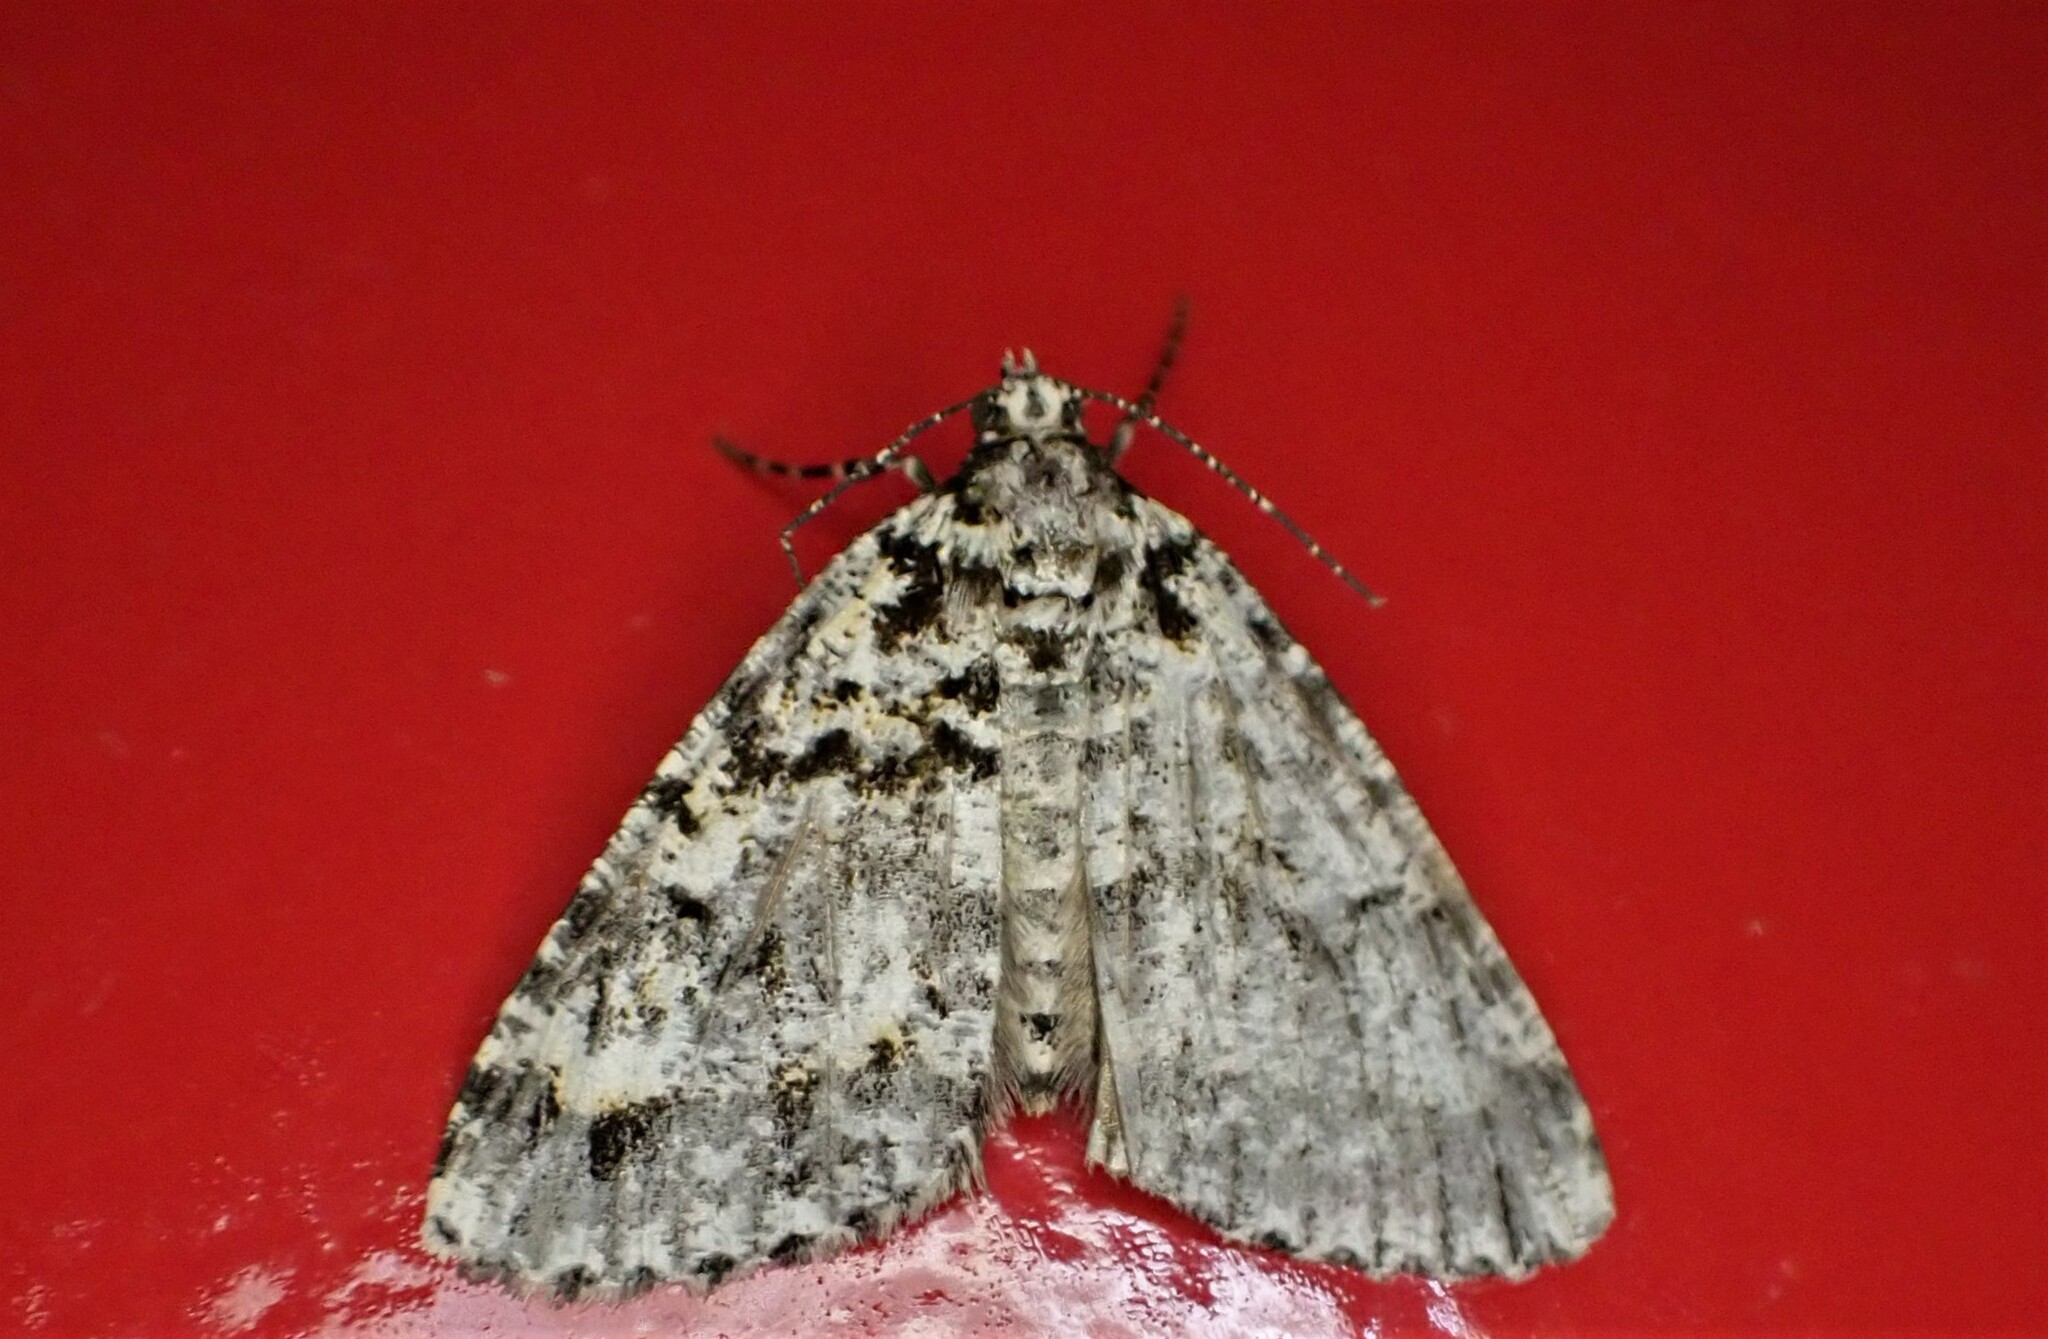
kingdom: Animalia
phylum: Arthropoda
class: Insecta
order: Lepidoptera
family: Geometridae
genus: Pseudocoremia
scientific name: Pseudocoremia monacha
